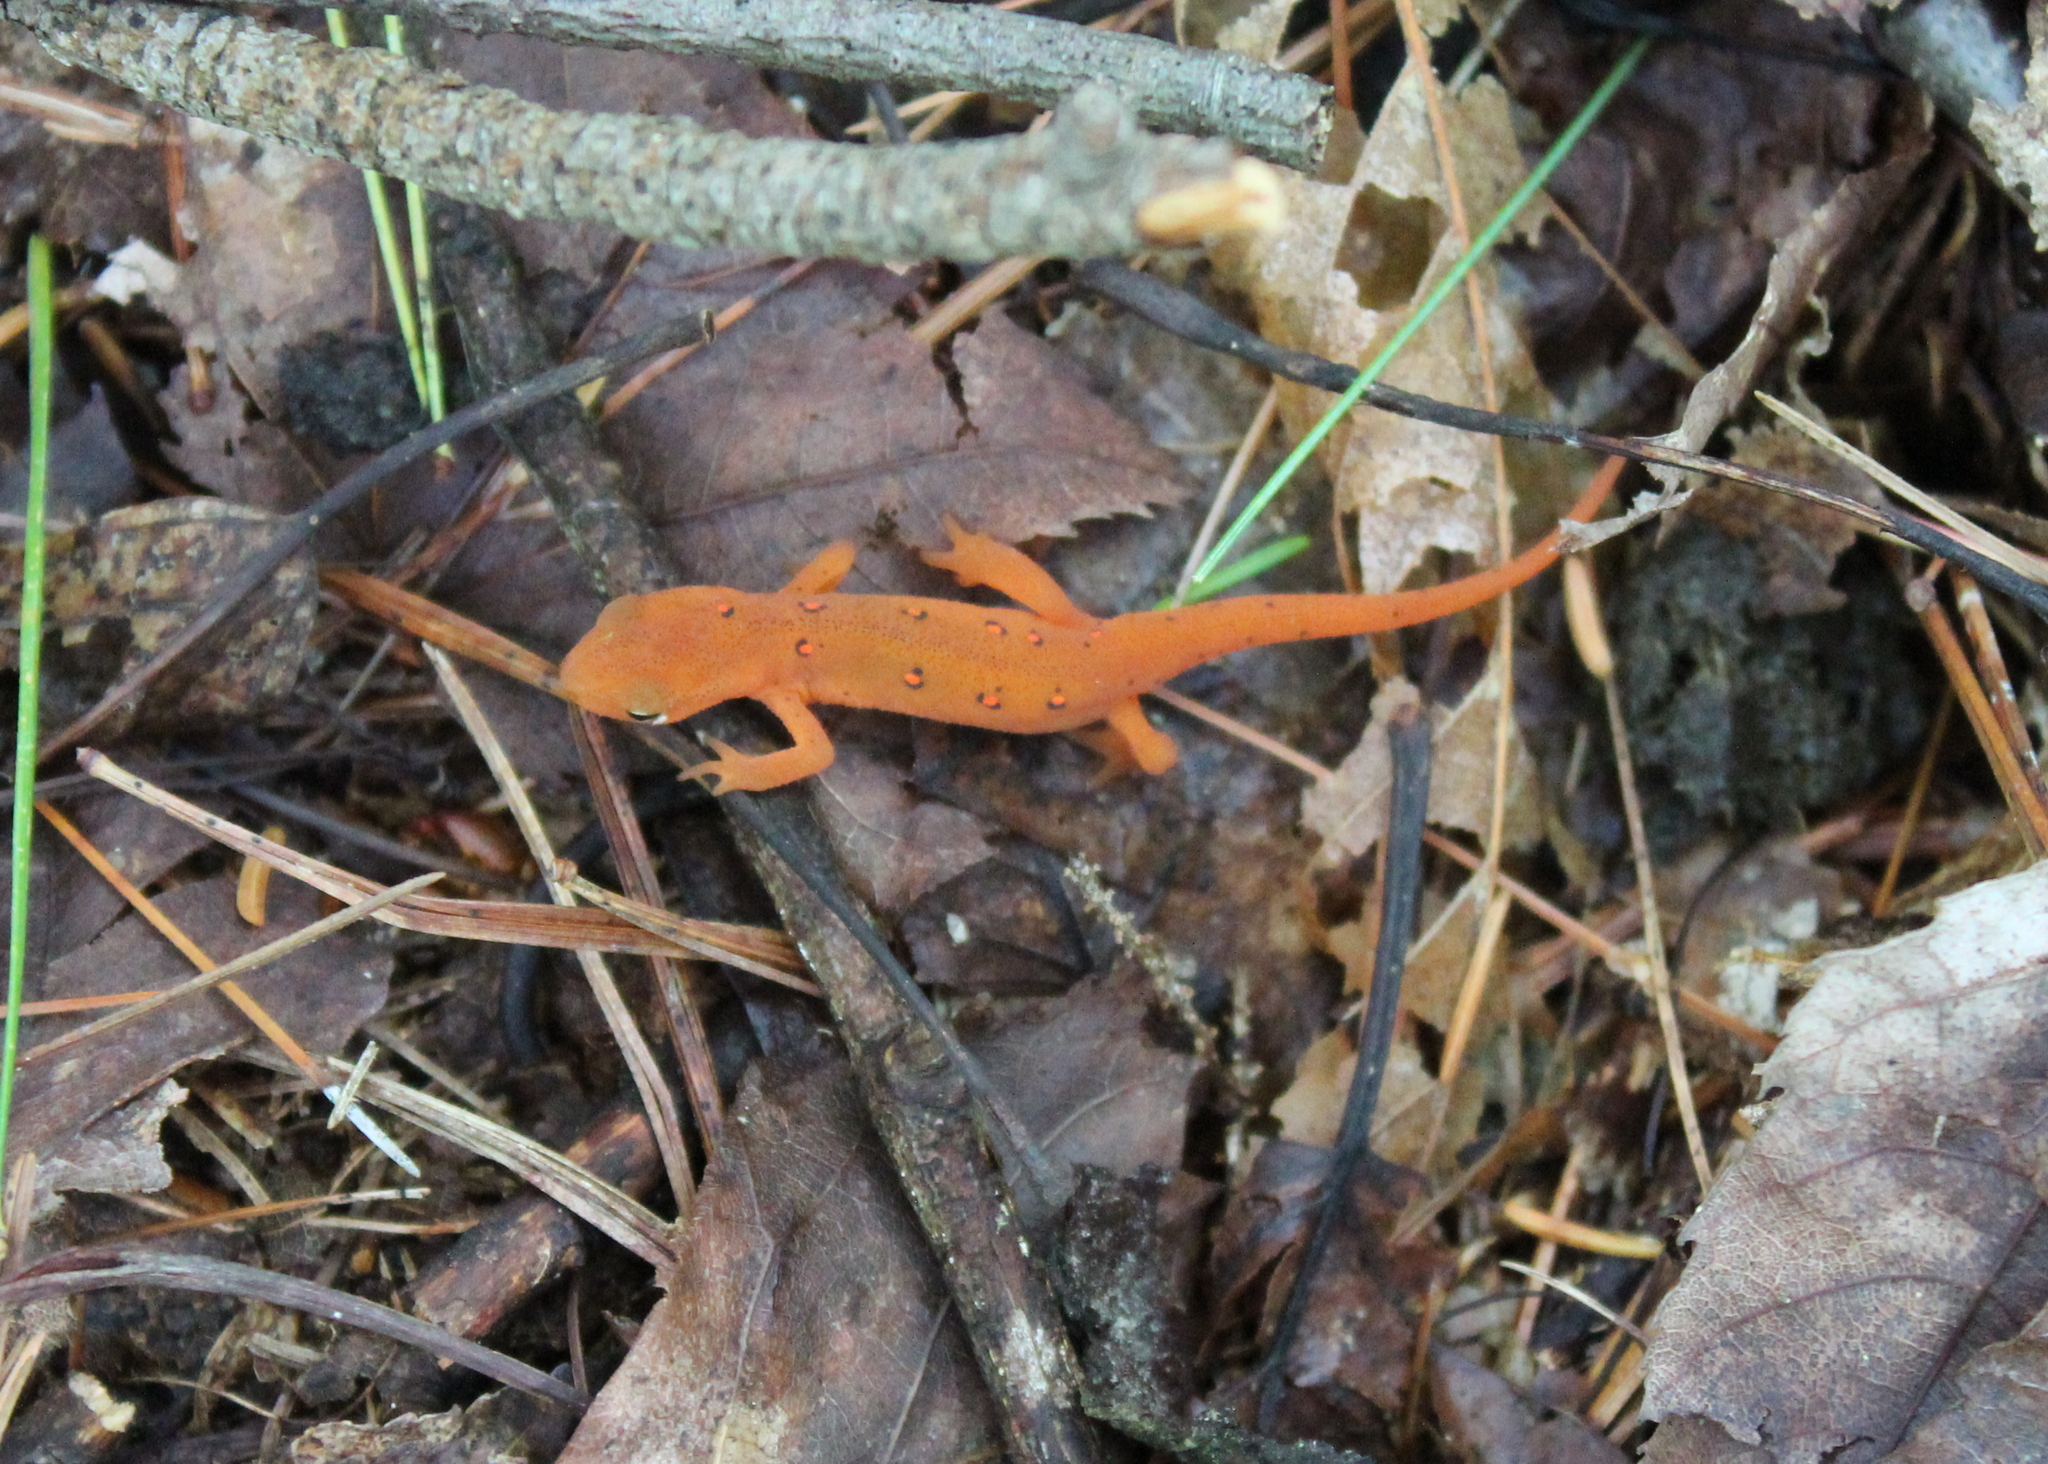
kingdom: Animalia
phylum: Chordata
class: Amphibia
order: Caudata
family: Salamandridae
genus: Notophthalmus
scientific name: Notophthalmus viridescens
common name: Eastern newt
